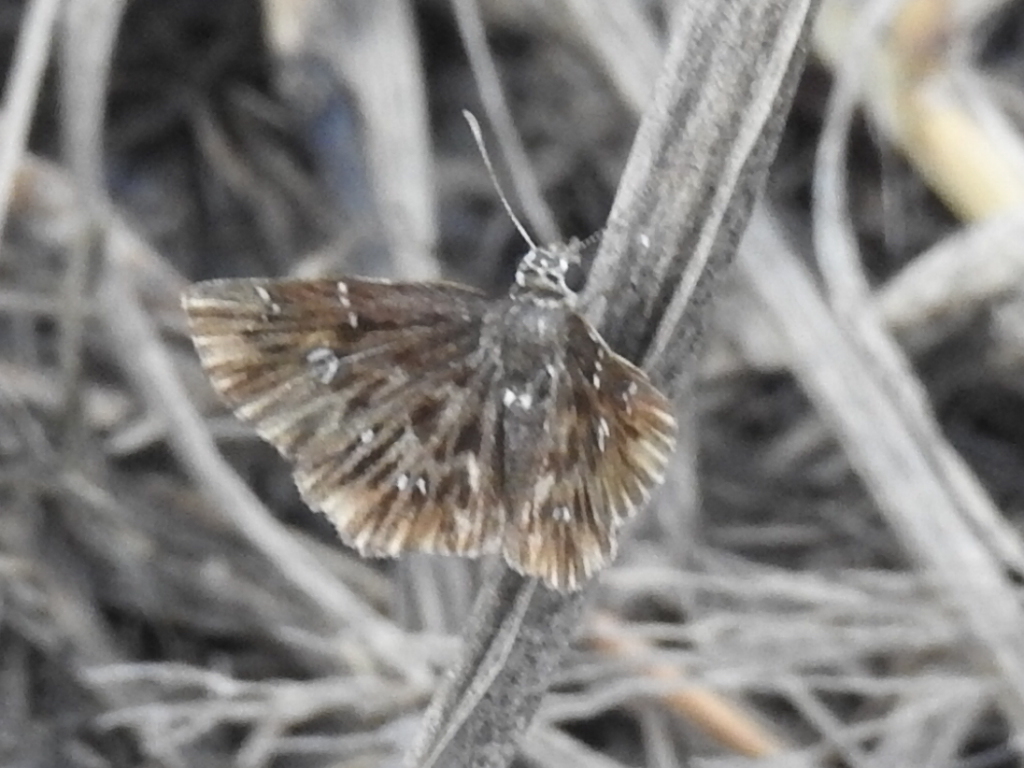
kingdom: Animalia
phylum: Arthropoda
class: Insecta
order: Lepidoptera
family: Hesperiidae
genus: Celotes
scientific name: Celotes nessus
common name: Common streaky-skipper
